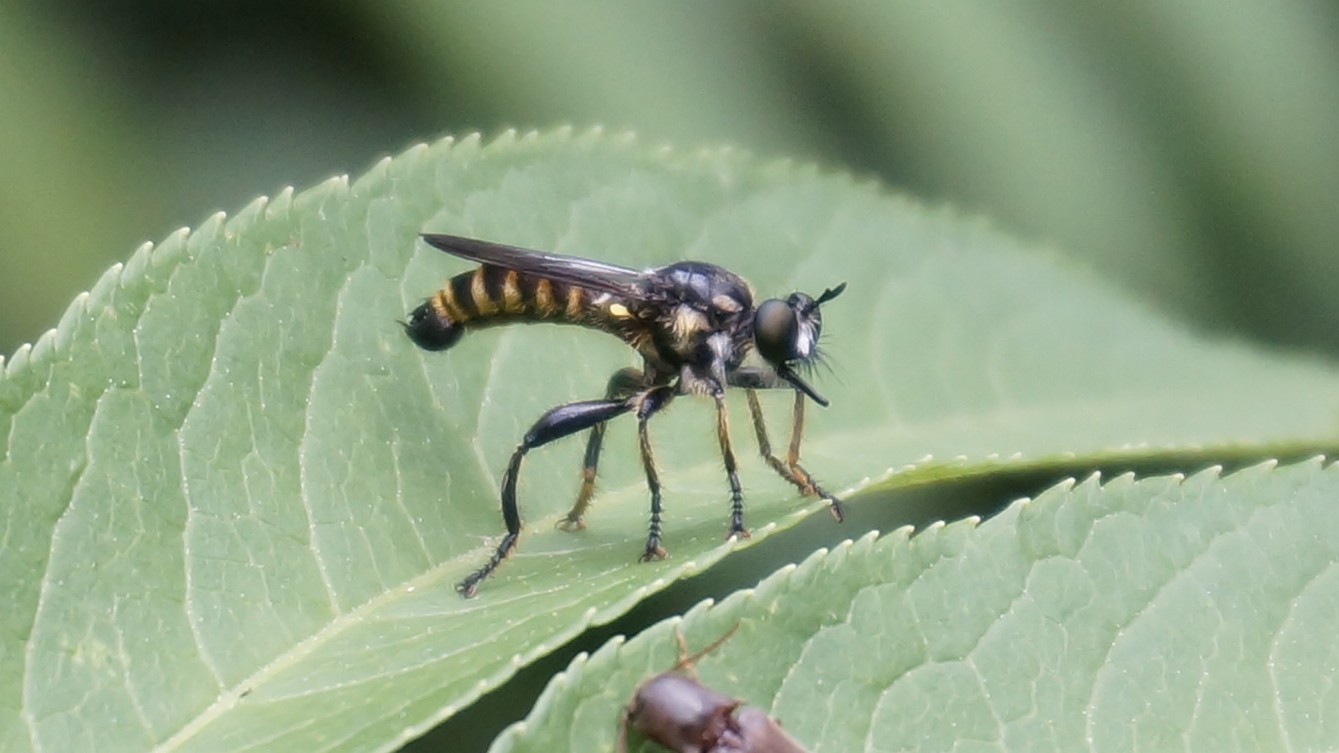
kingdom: Animalia
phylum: Arthropoda
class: Insecta
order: Diptera
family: Asilidae
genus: Choerades
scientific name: Choerades
